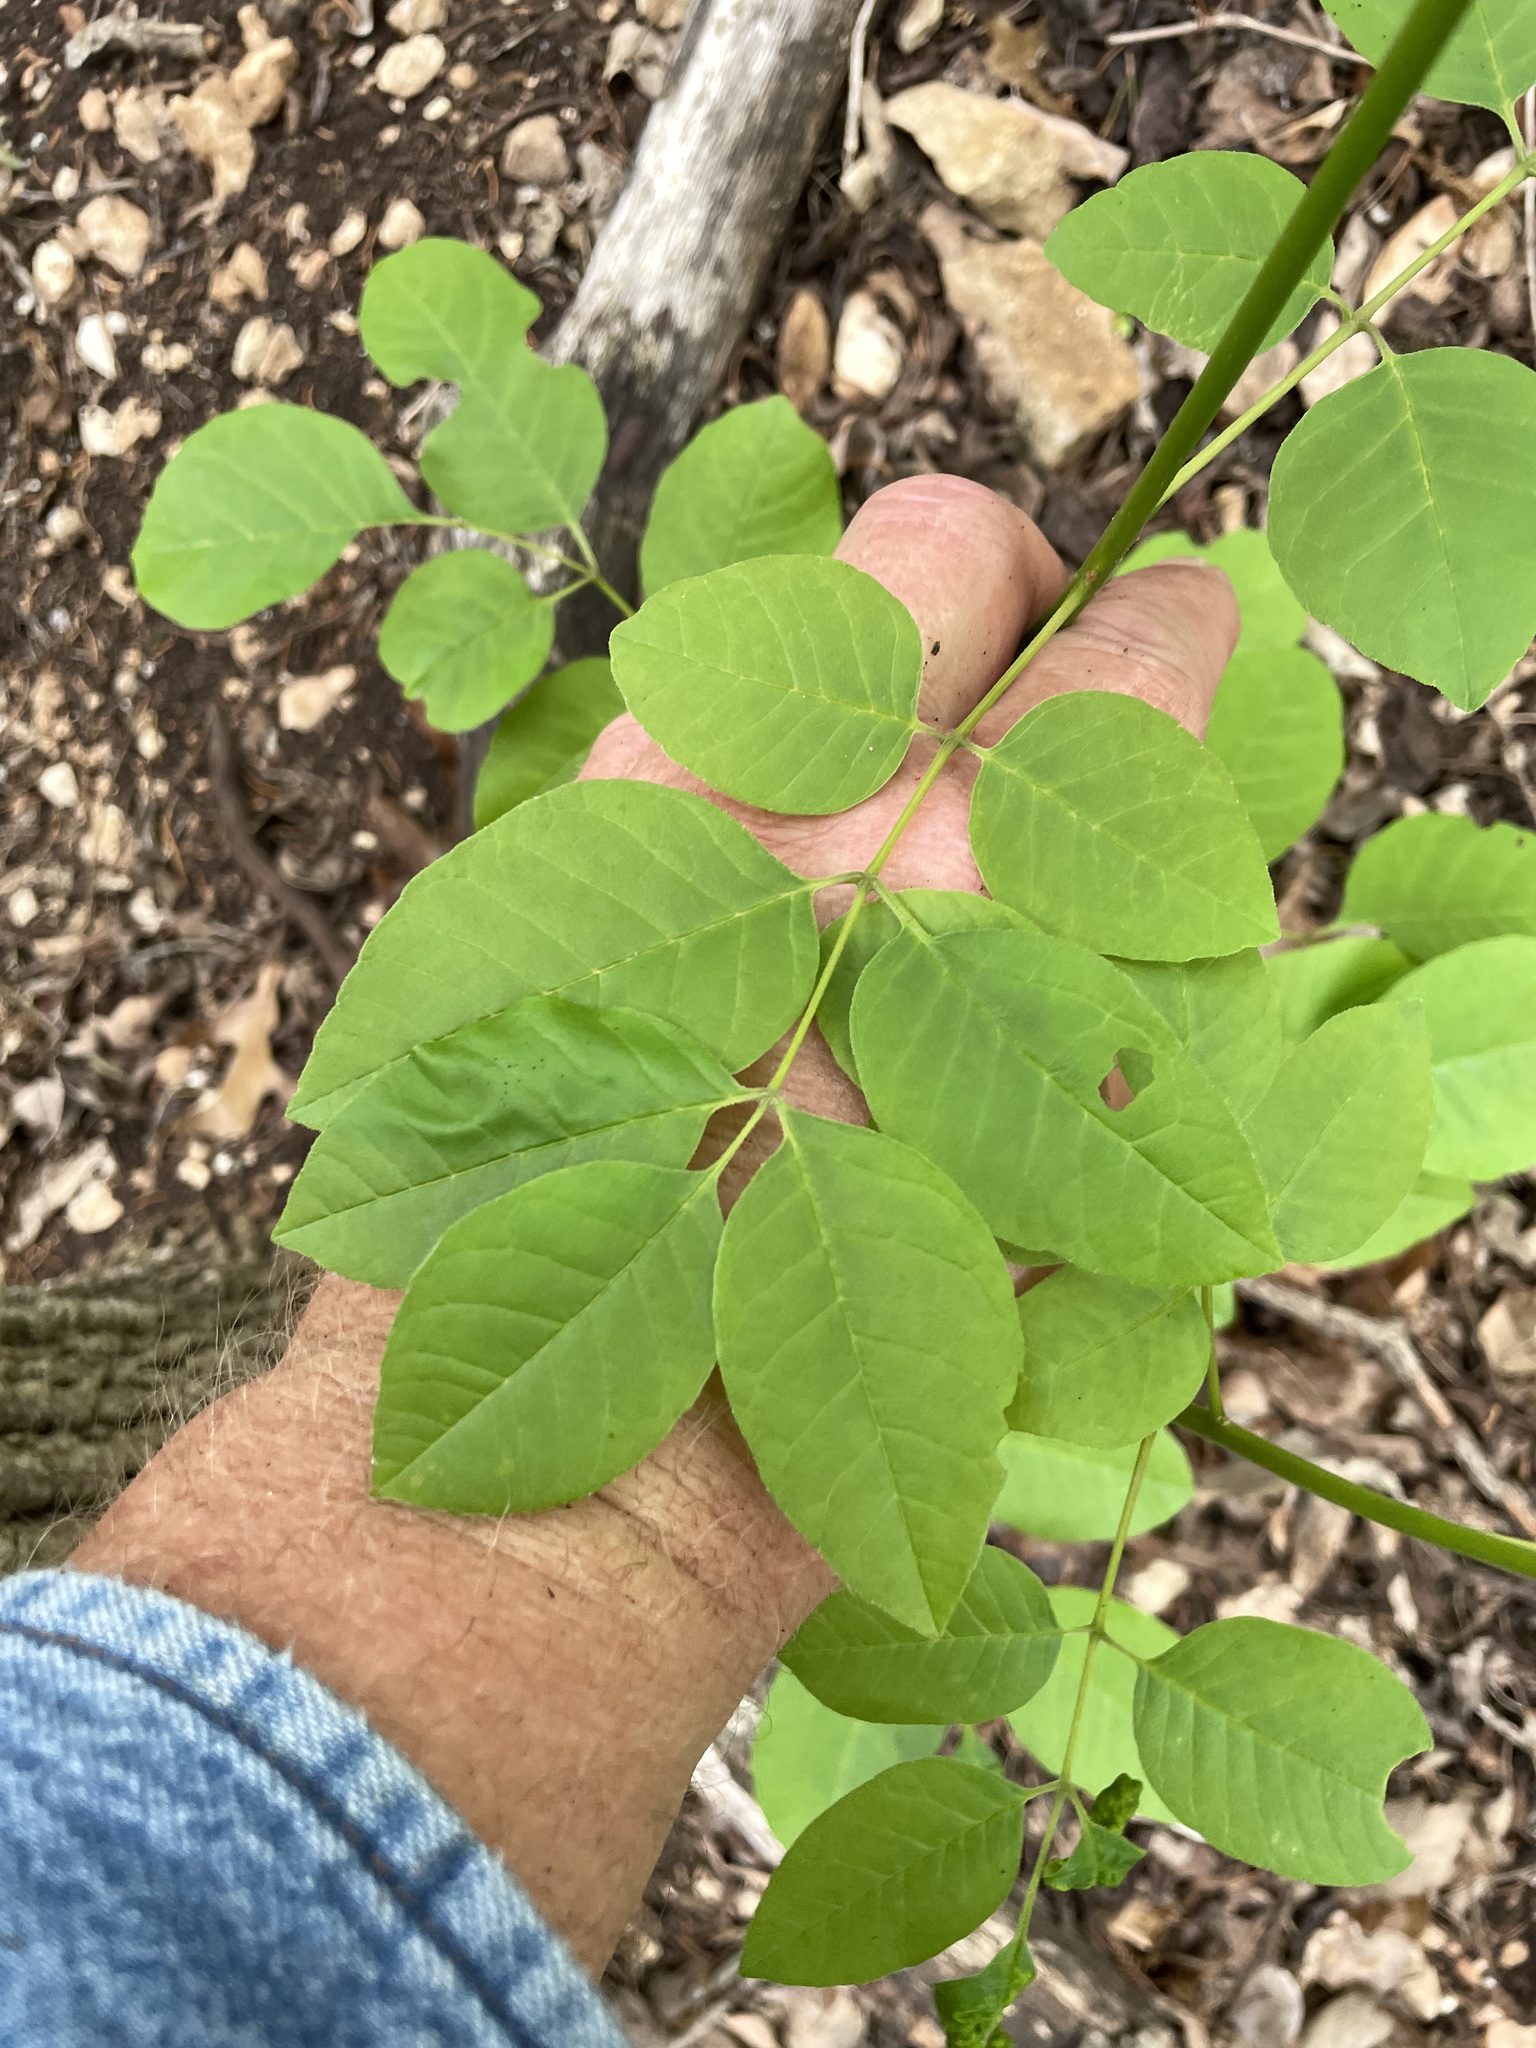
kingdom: Plantae
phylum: Tracheophyta
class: Magnoliopsida
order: Lamiales
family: Oleaceae
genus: Fraxinus
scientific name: Fraxinus albicans
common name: Texas ash
